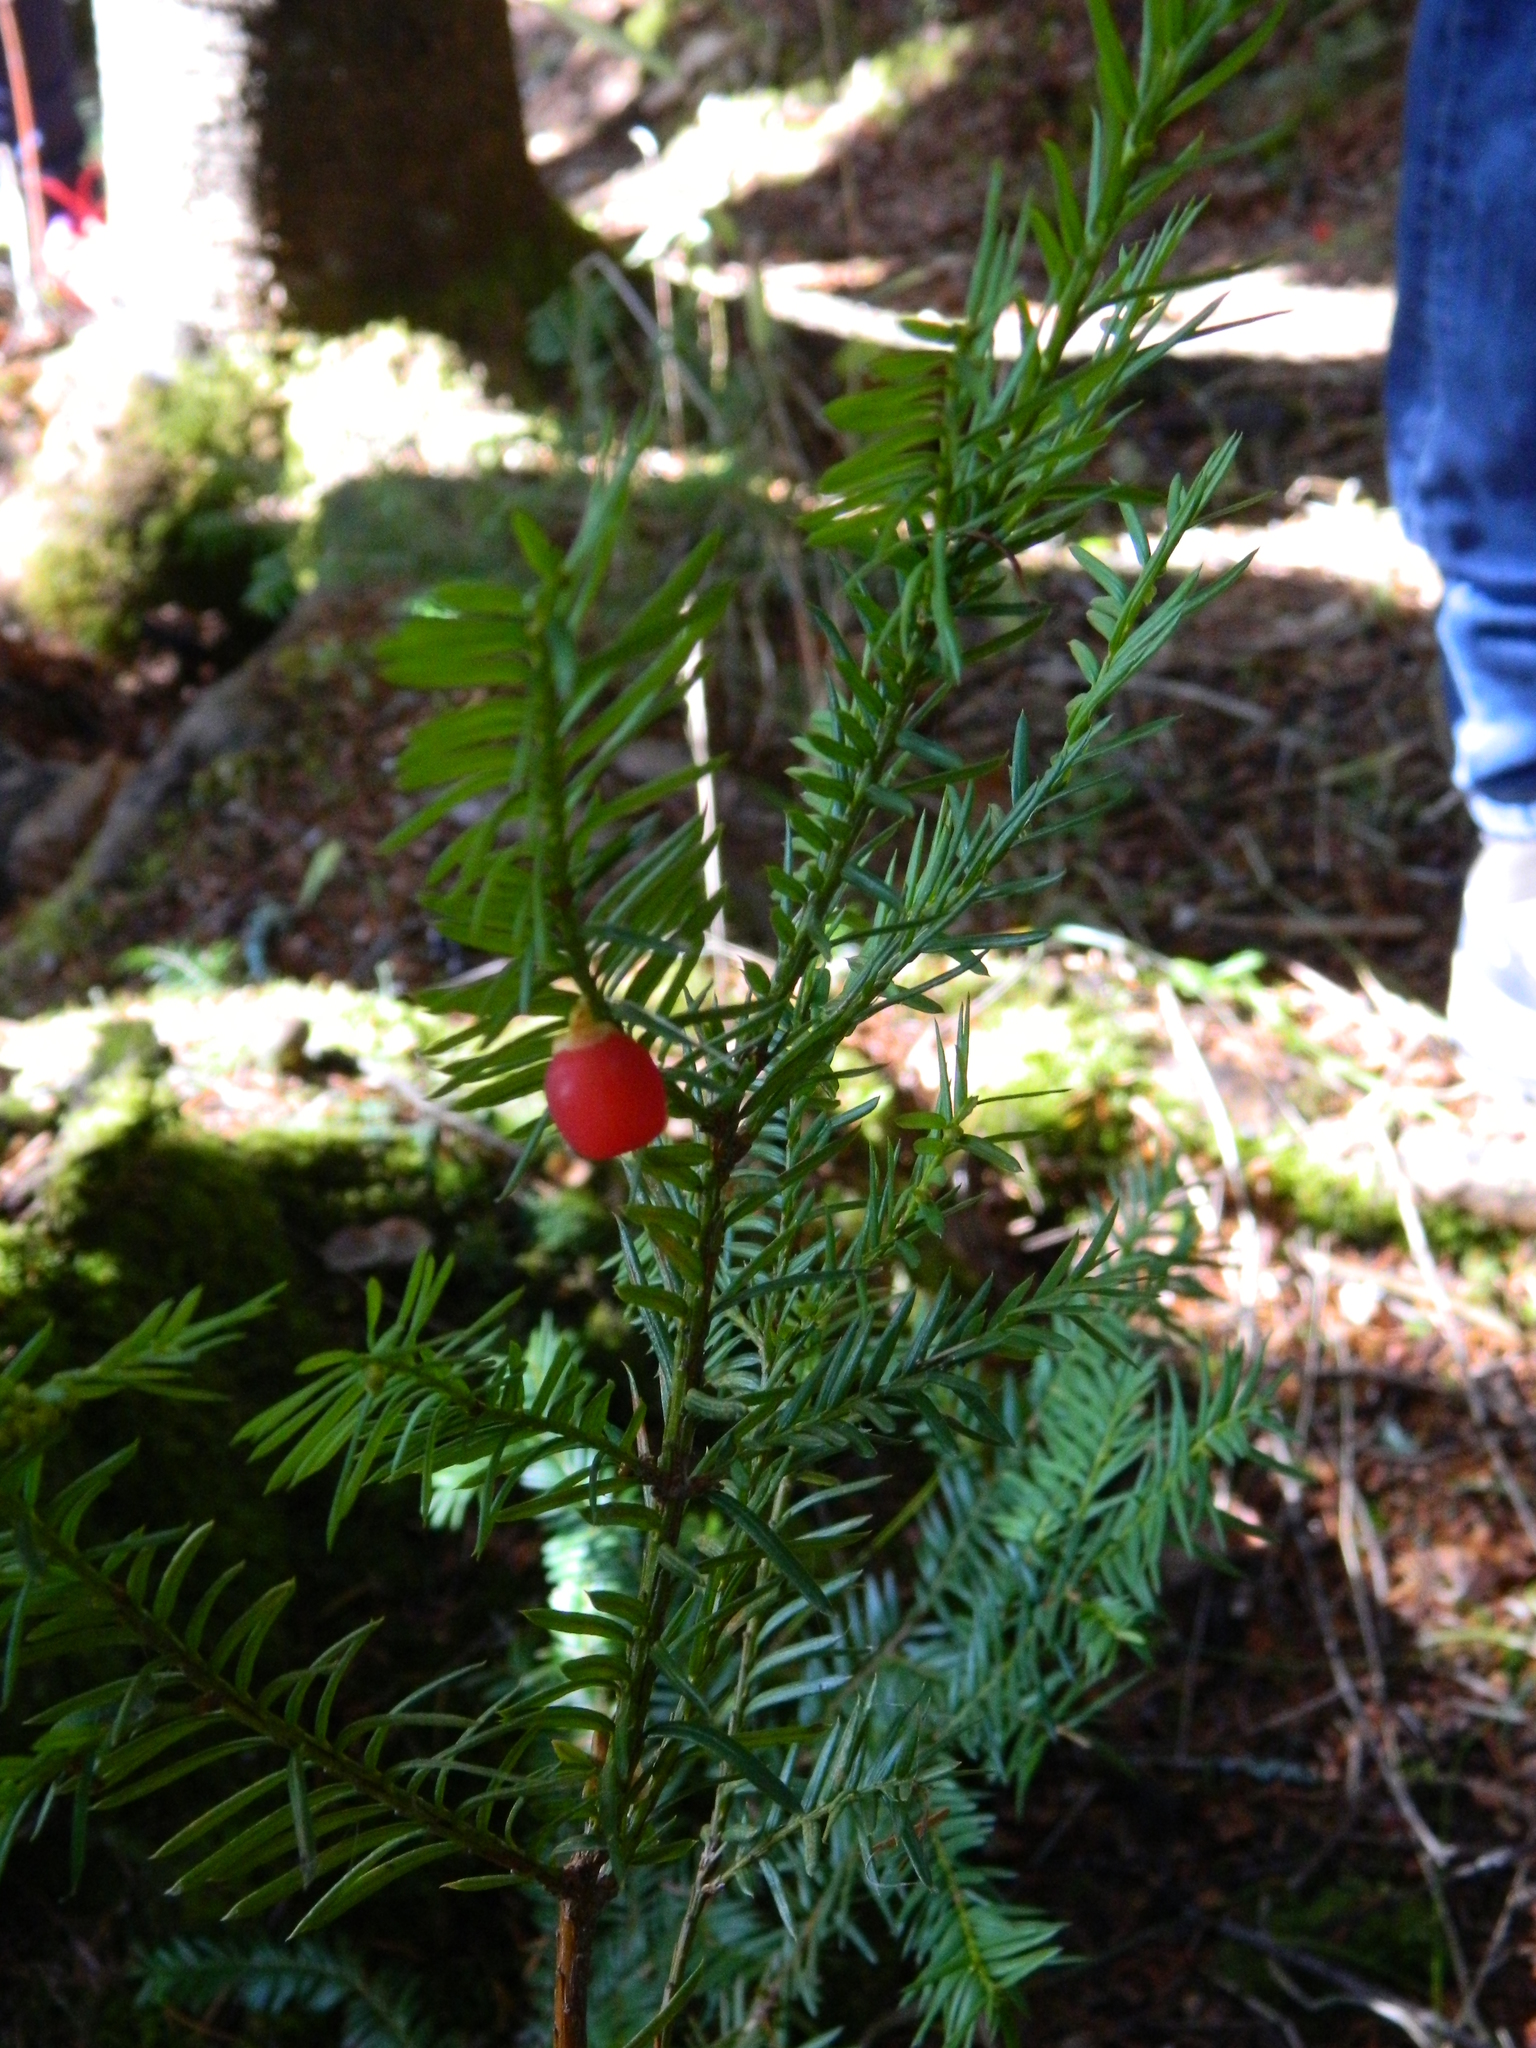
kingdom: Plantae
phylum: Tracheophyta
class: Pinopsida
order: Pinales
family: Taxaceae
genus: Taxus
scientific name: Taxus canadensis
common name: American yew
